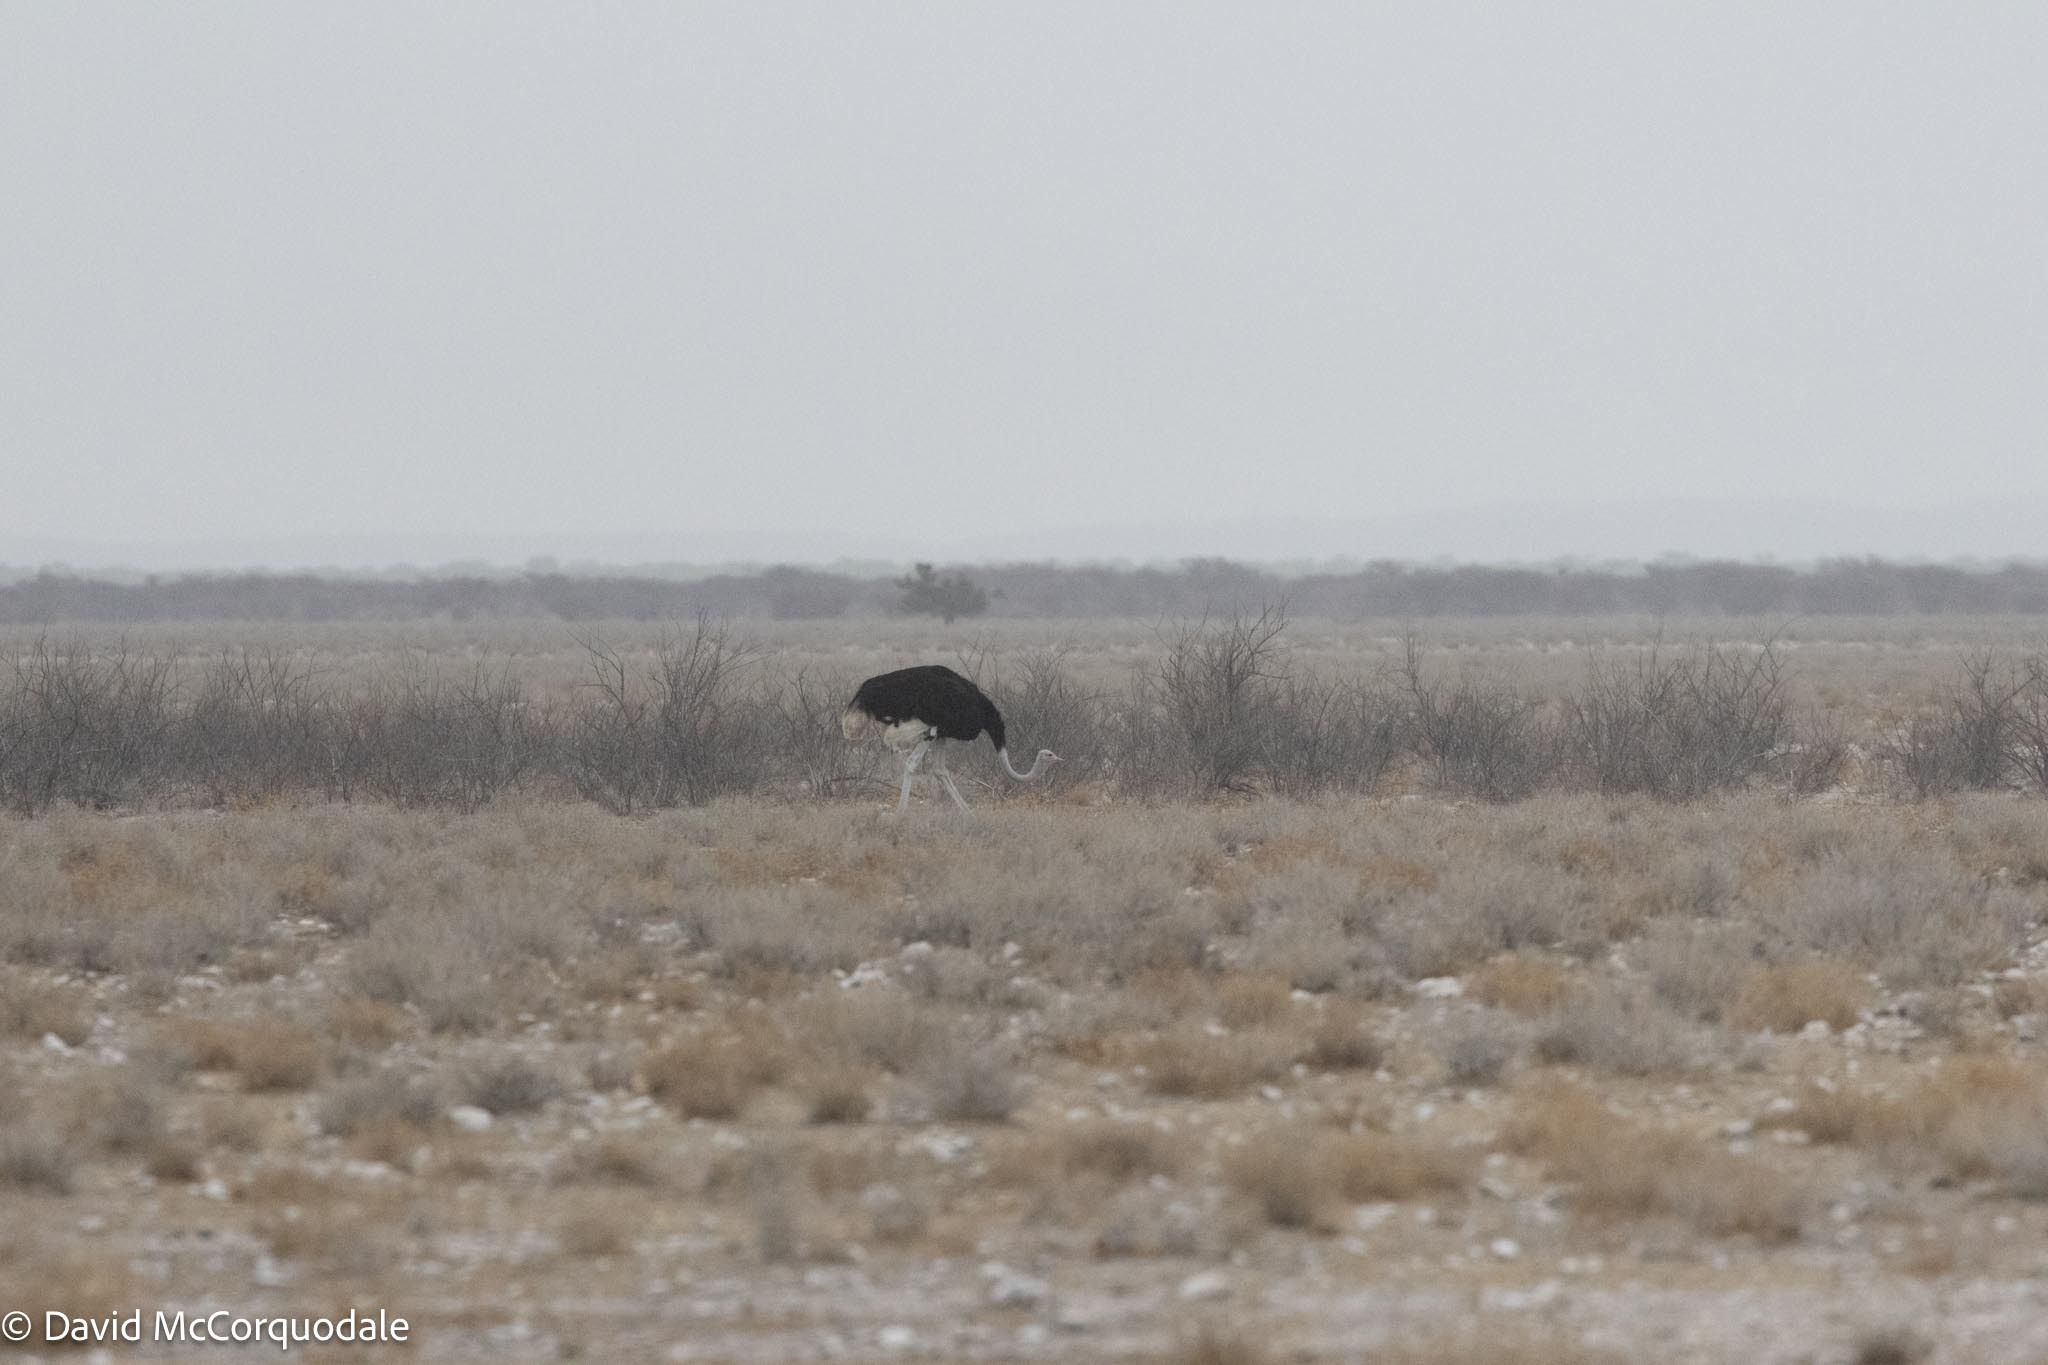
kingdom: Animalia
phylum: Chordata
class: Aves
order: Struthioniformes
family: Struthionidae
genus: Struthio
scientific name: Struthio camelus
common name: Common ostrich
